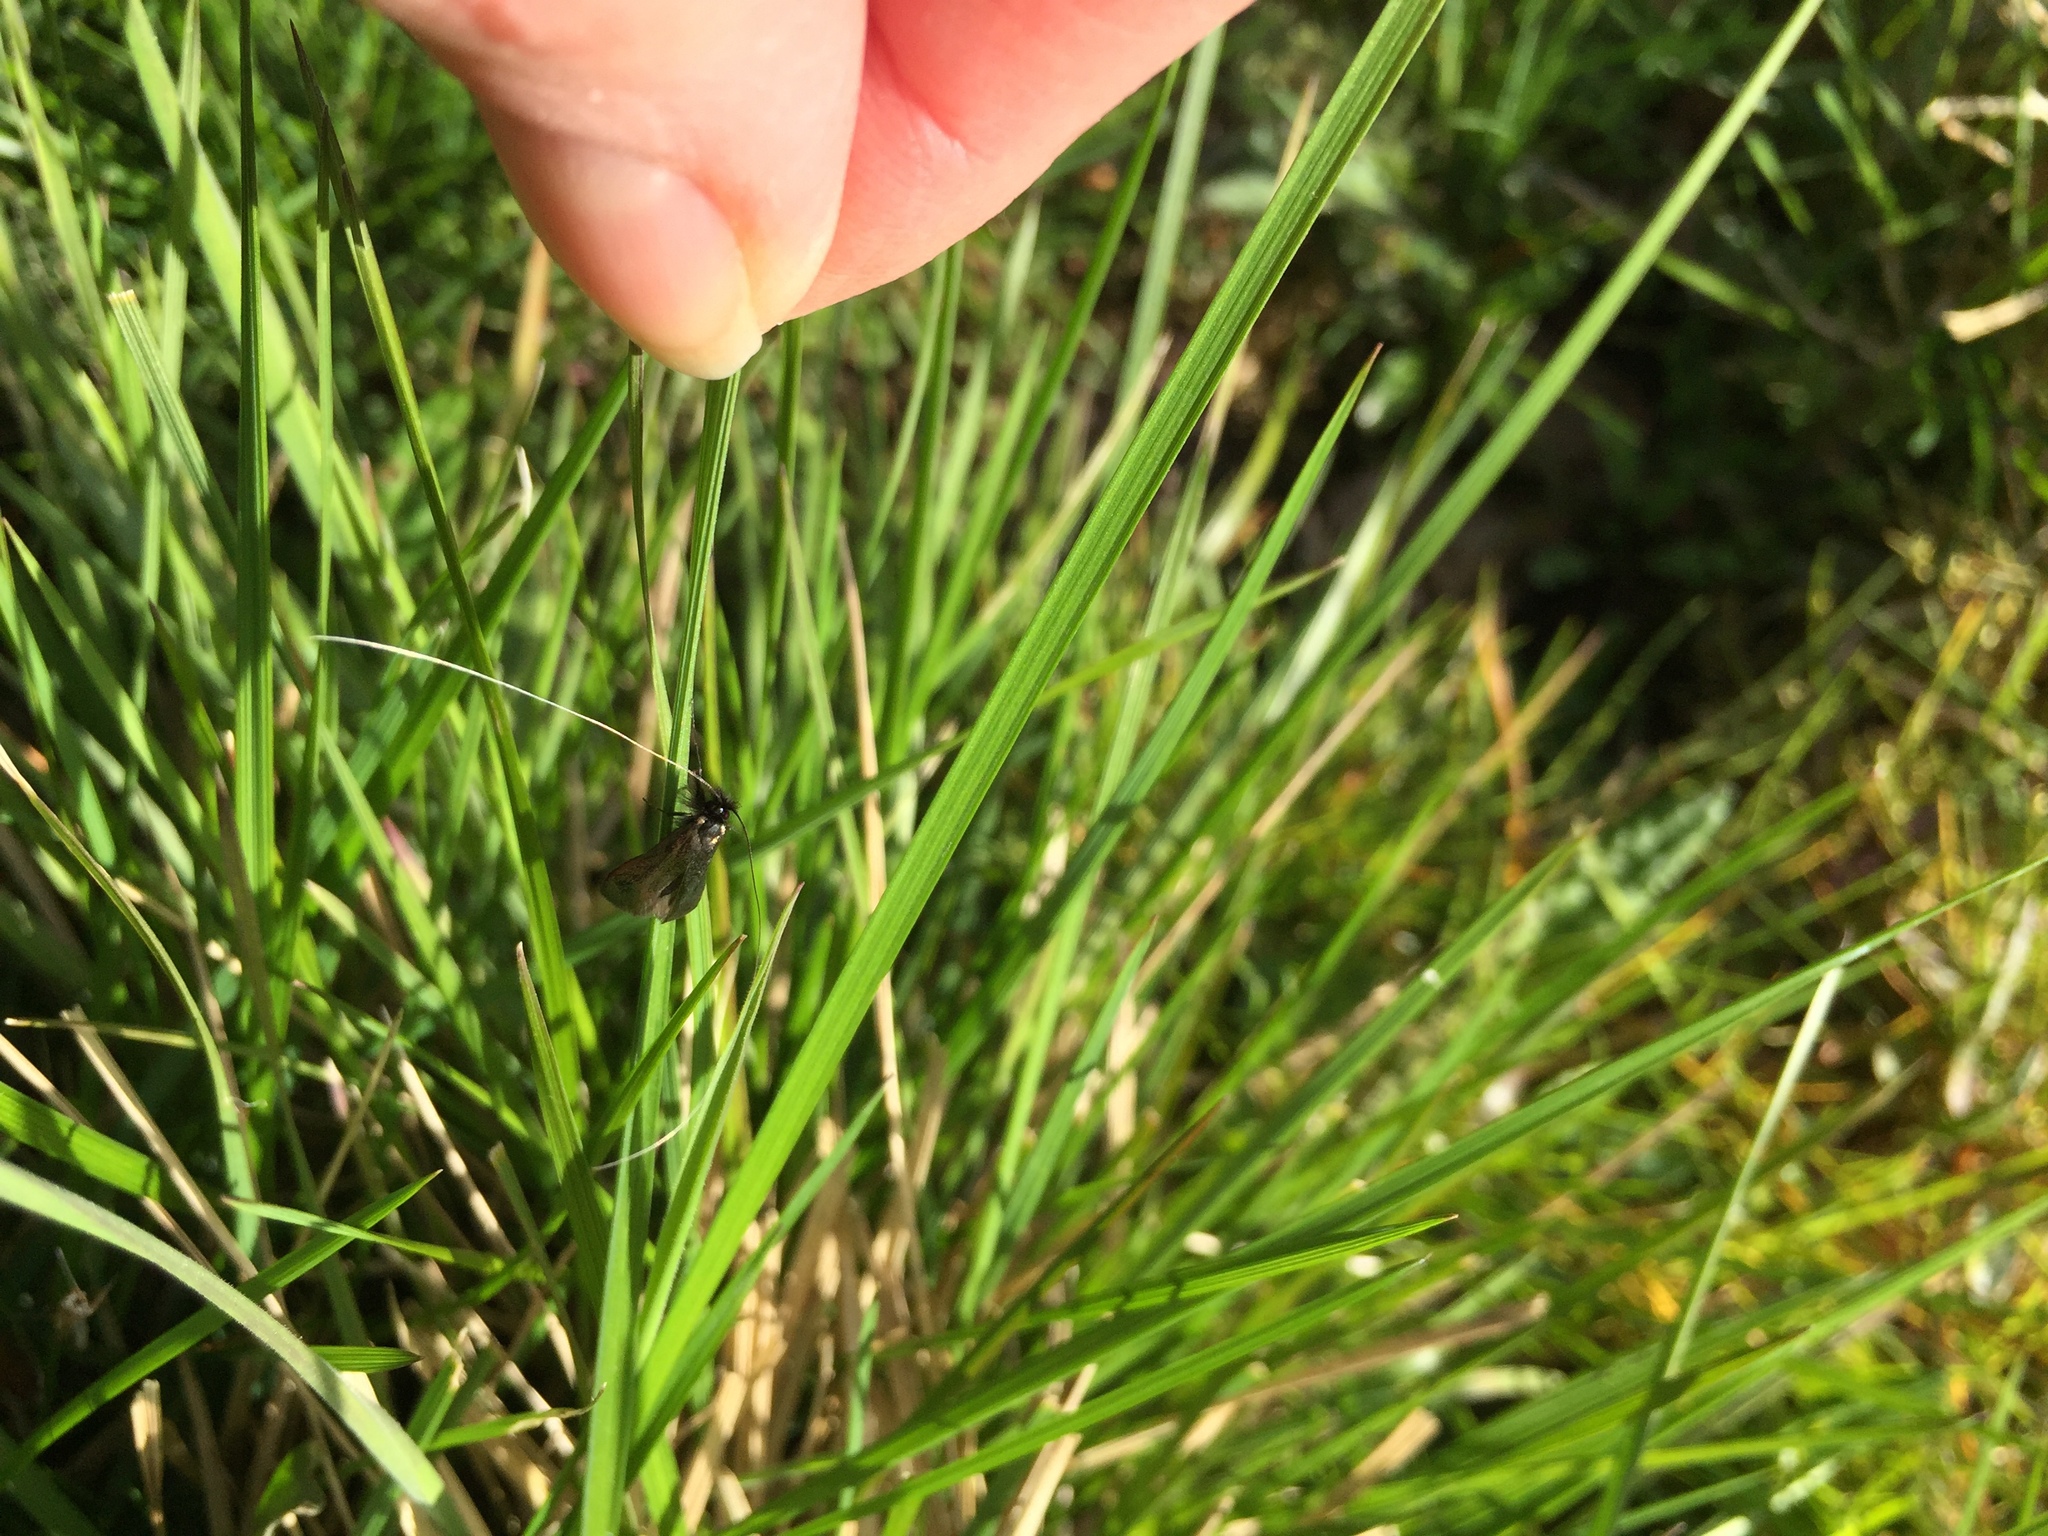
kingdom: Animalia
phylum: Arthropoda
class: Insecta
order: Lepidoptera
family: Adelidae
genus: Adela
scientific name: Adela viridella
